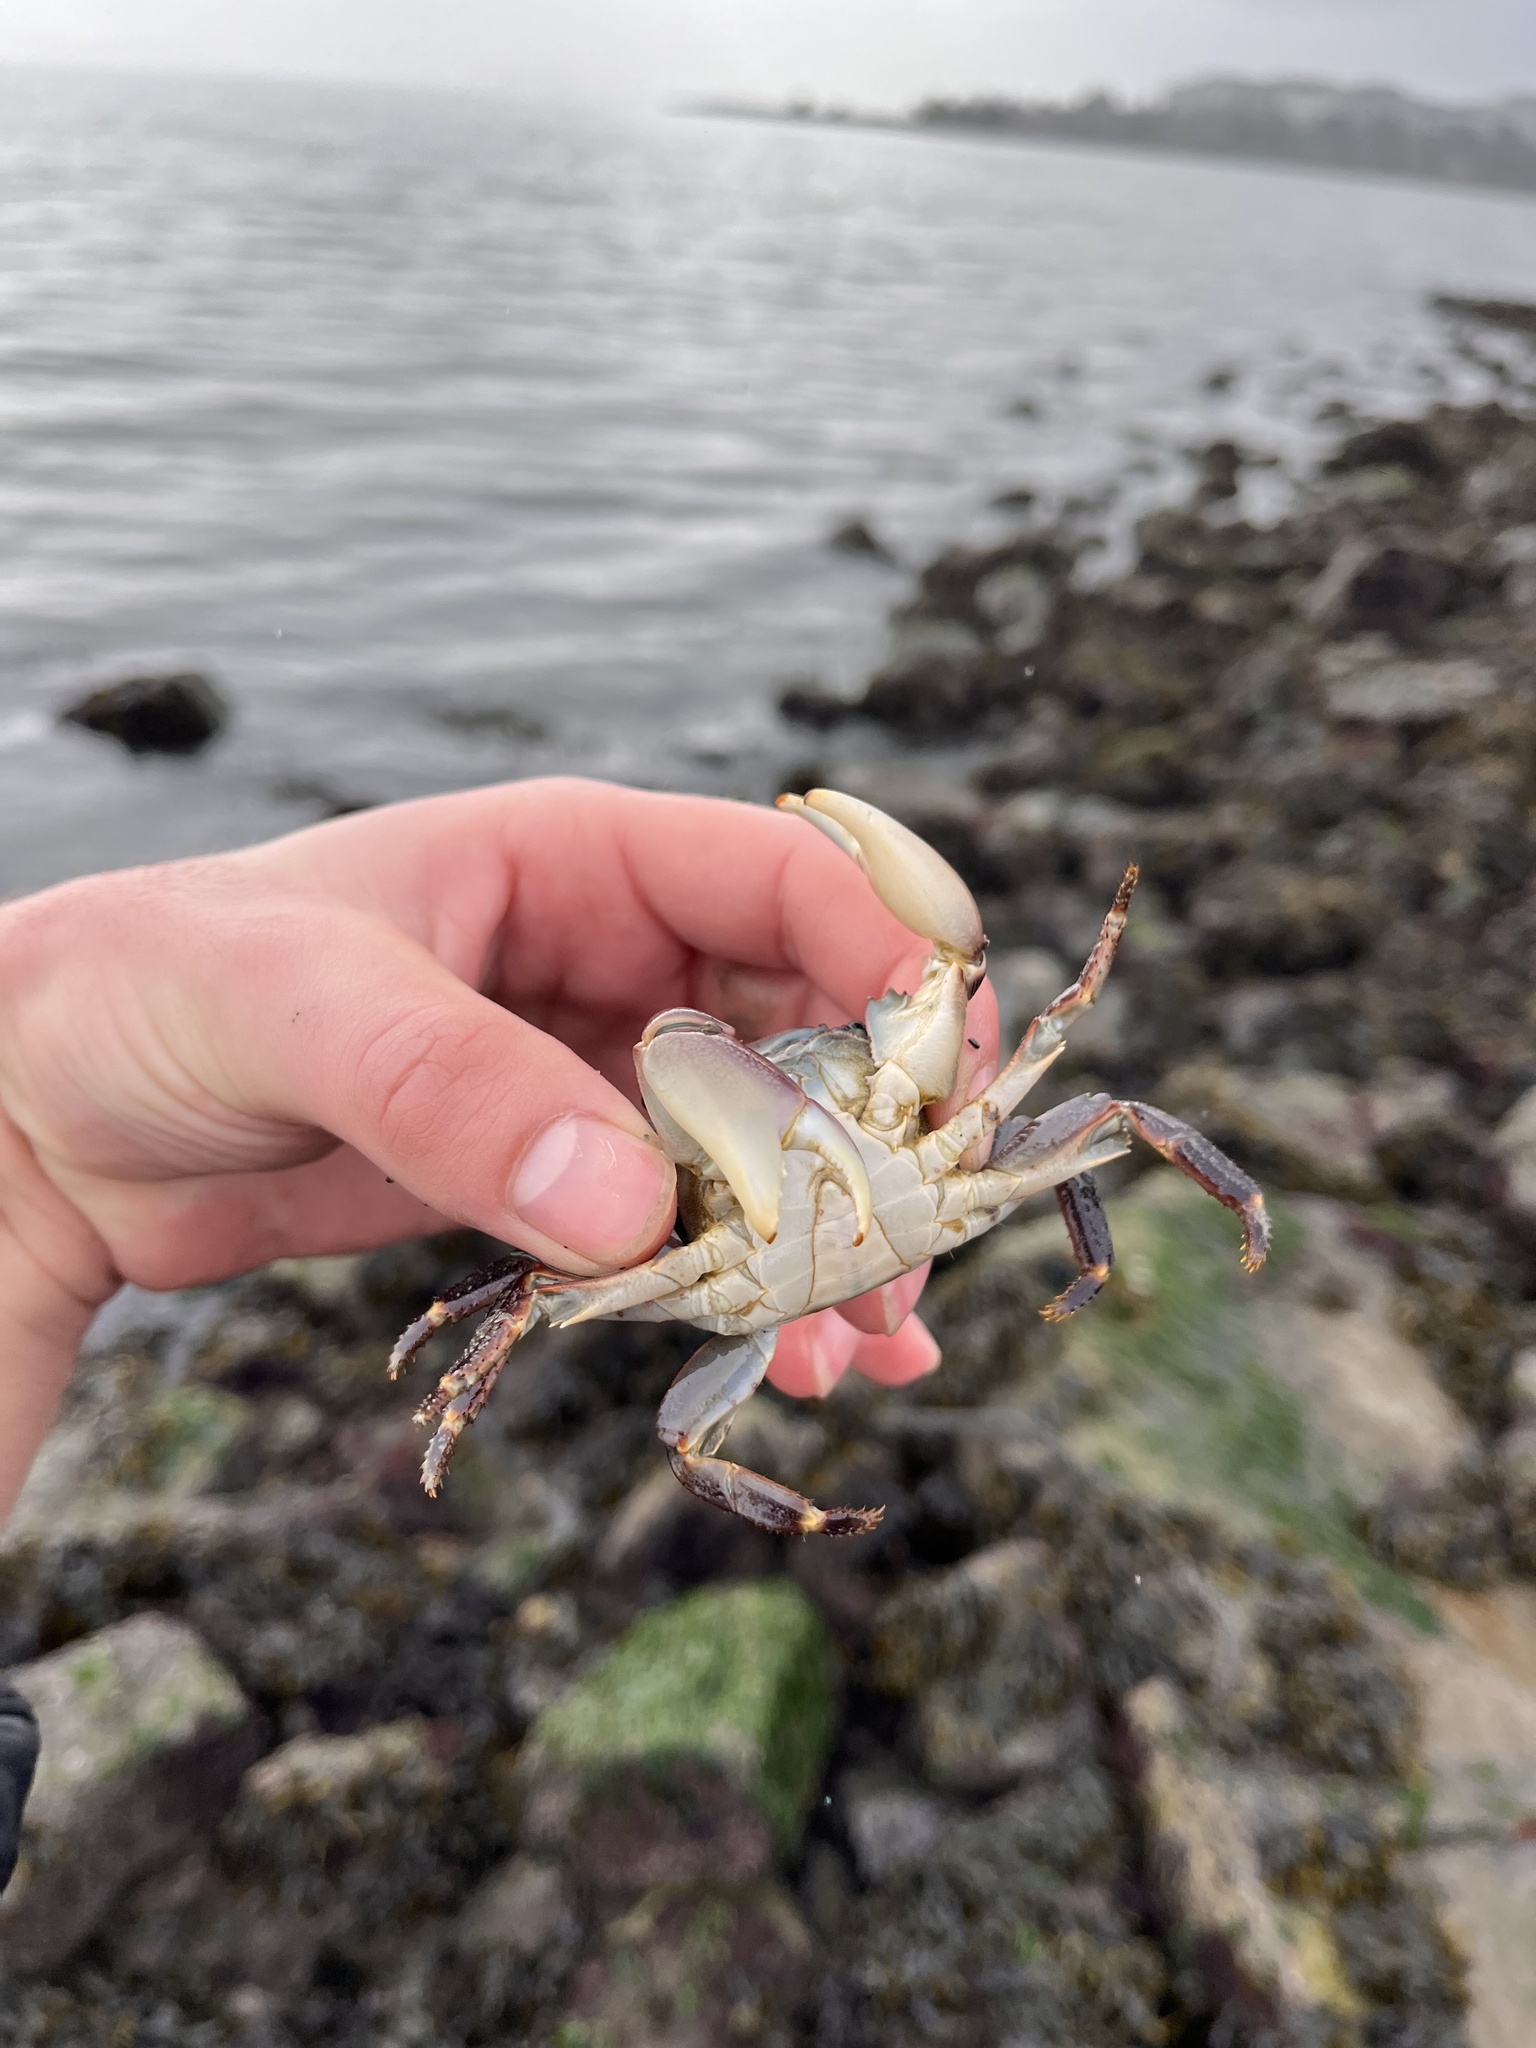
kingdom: Animalia
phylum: Arthropoda
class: Malacostraca
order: Decapoda
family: Grapsidae
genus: Pachygrapsus
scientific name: Pachygrapsus crassipes
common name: Striped shore crab
